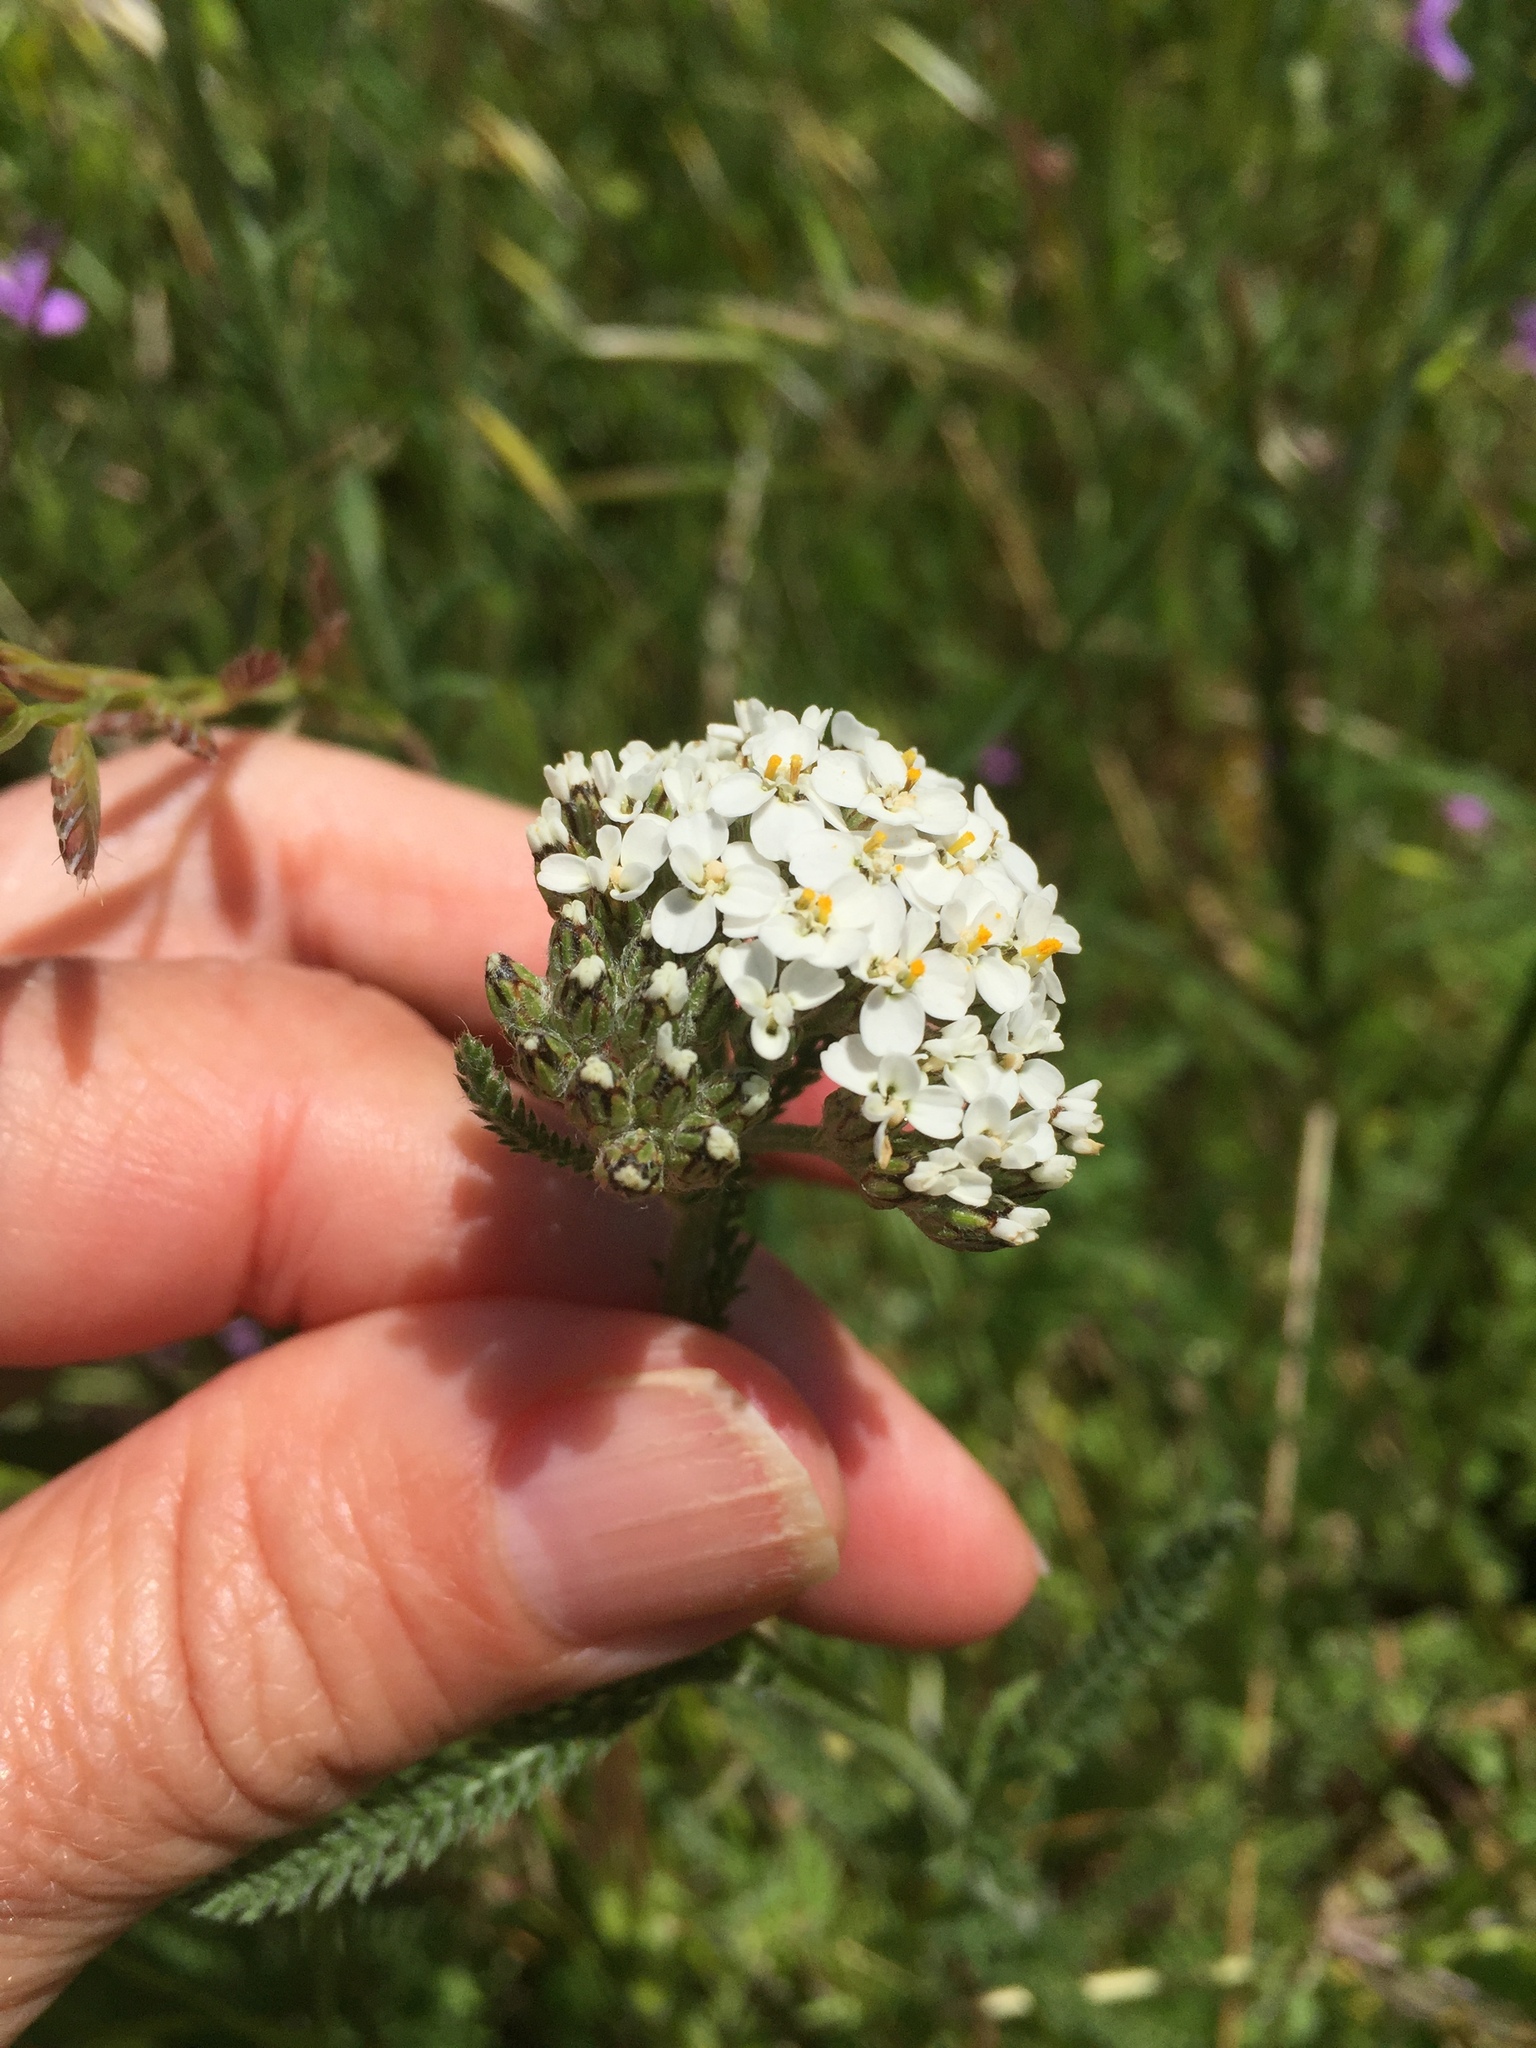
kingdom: Plantae
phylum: Tracheophyta
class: Magnoliopsida
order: Asterales
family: Asteraceae
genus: Achillea
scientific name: Achillea millefolium
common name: Yarrow
